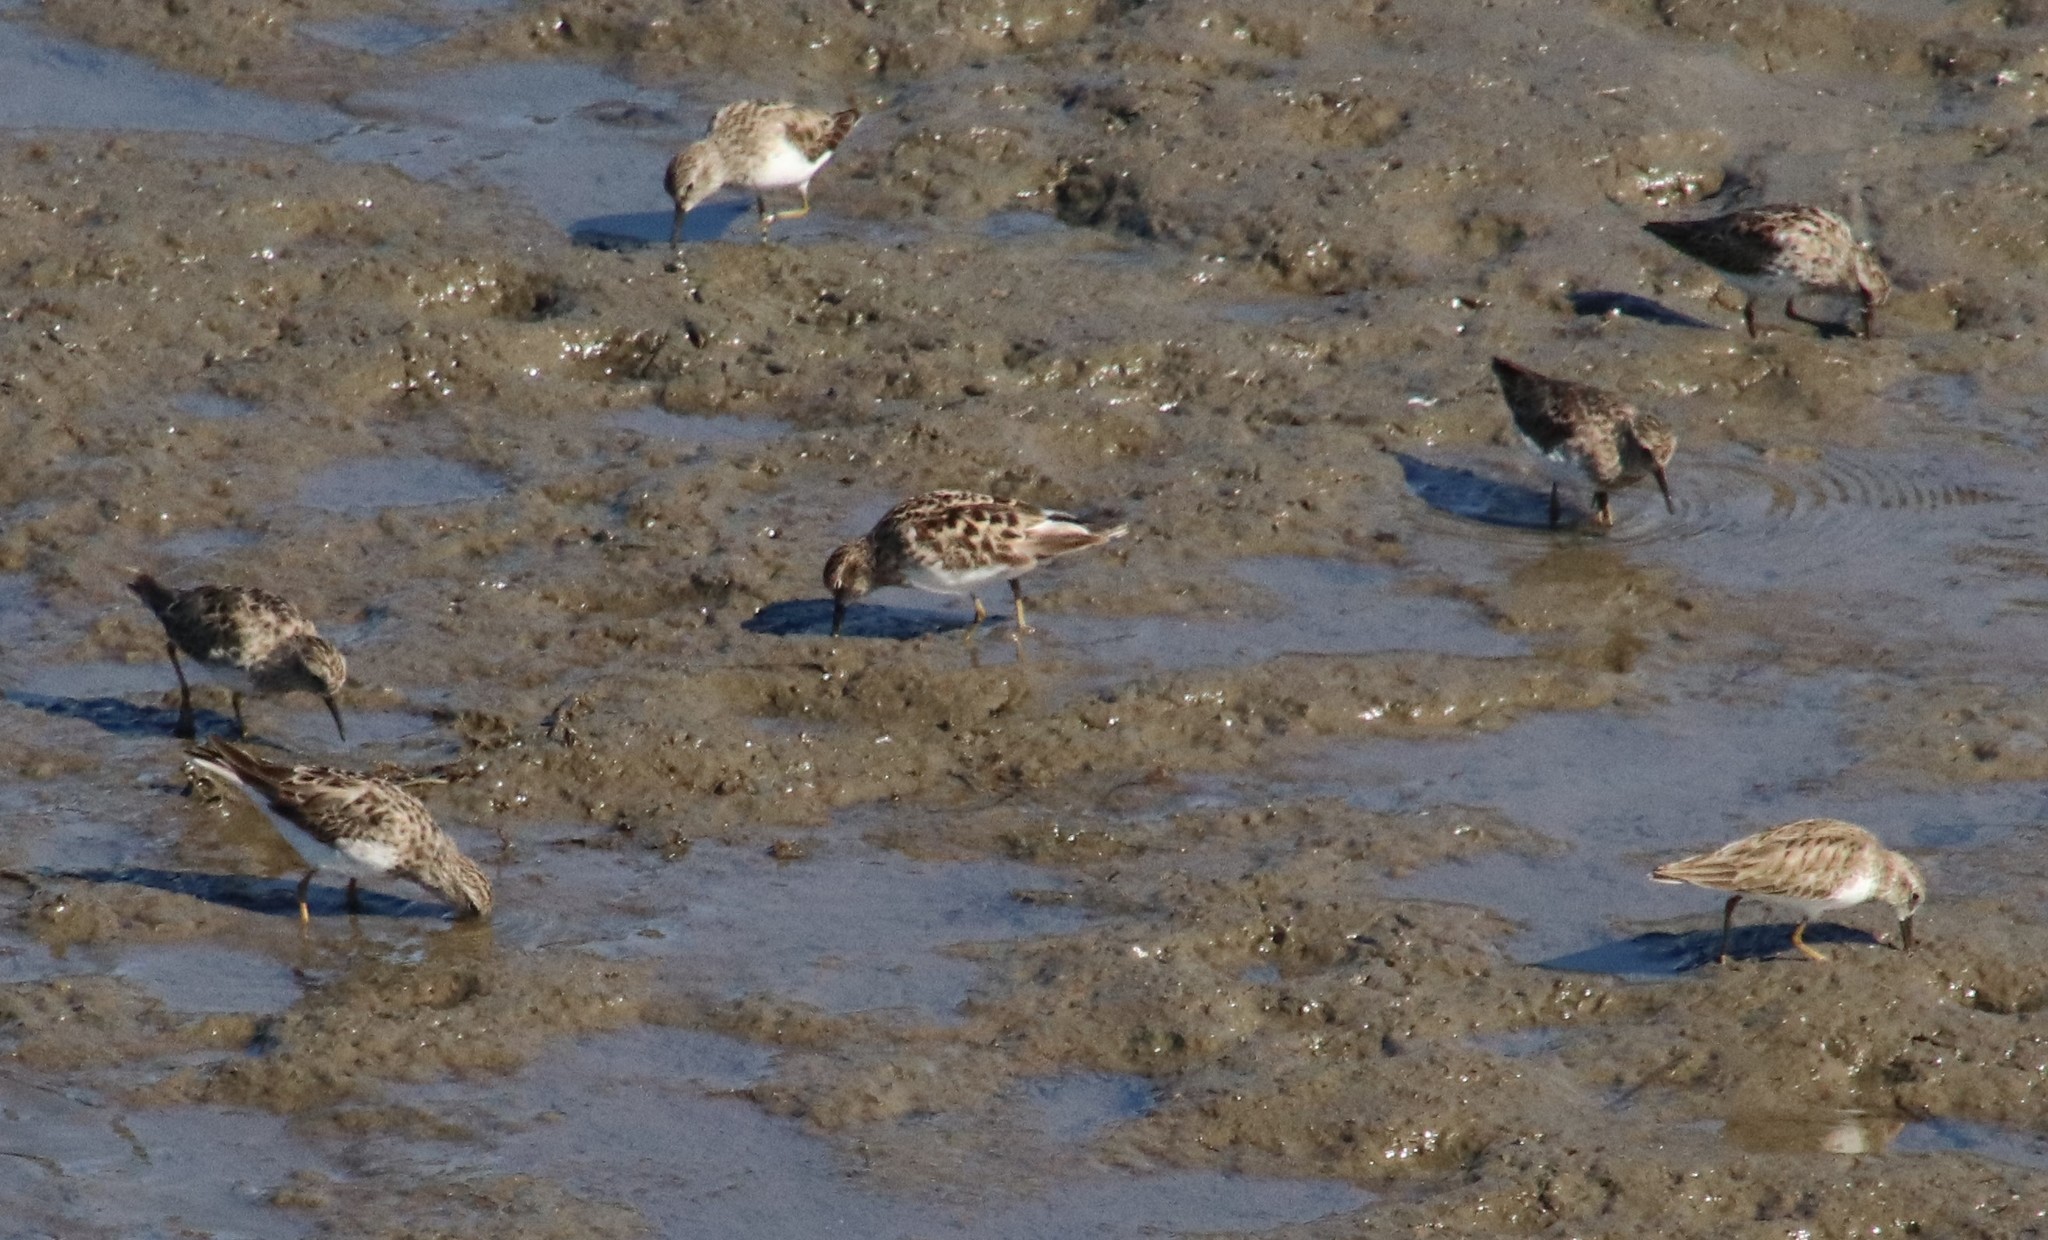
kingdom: Animalia
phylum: Chordata
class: Aves
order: Charadriiformes
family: Scolopacidae
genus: Calidris
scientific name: Calidris minutilla
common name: Least sandpiper
